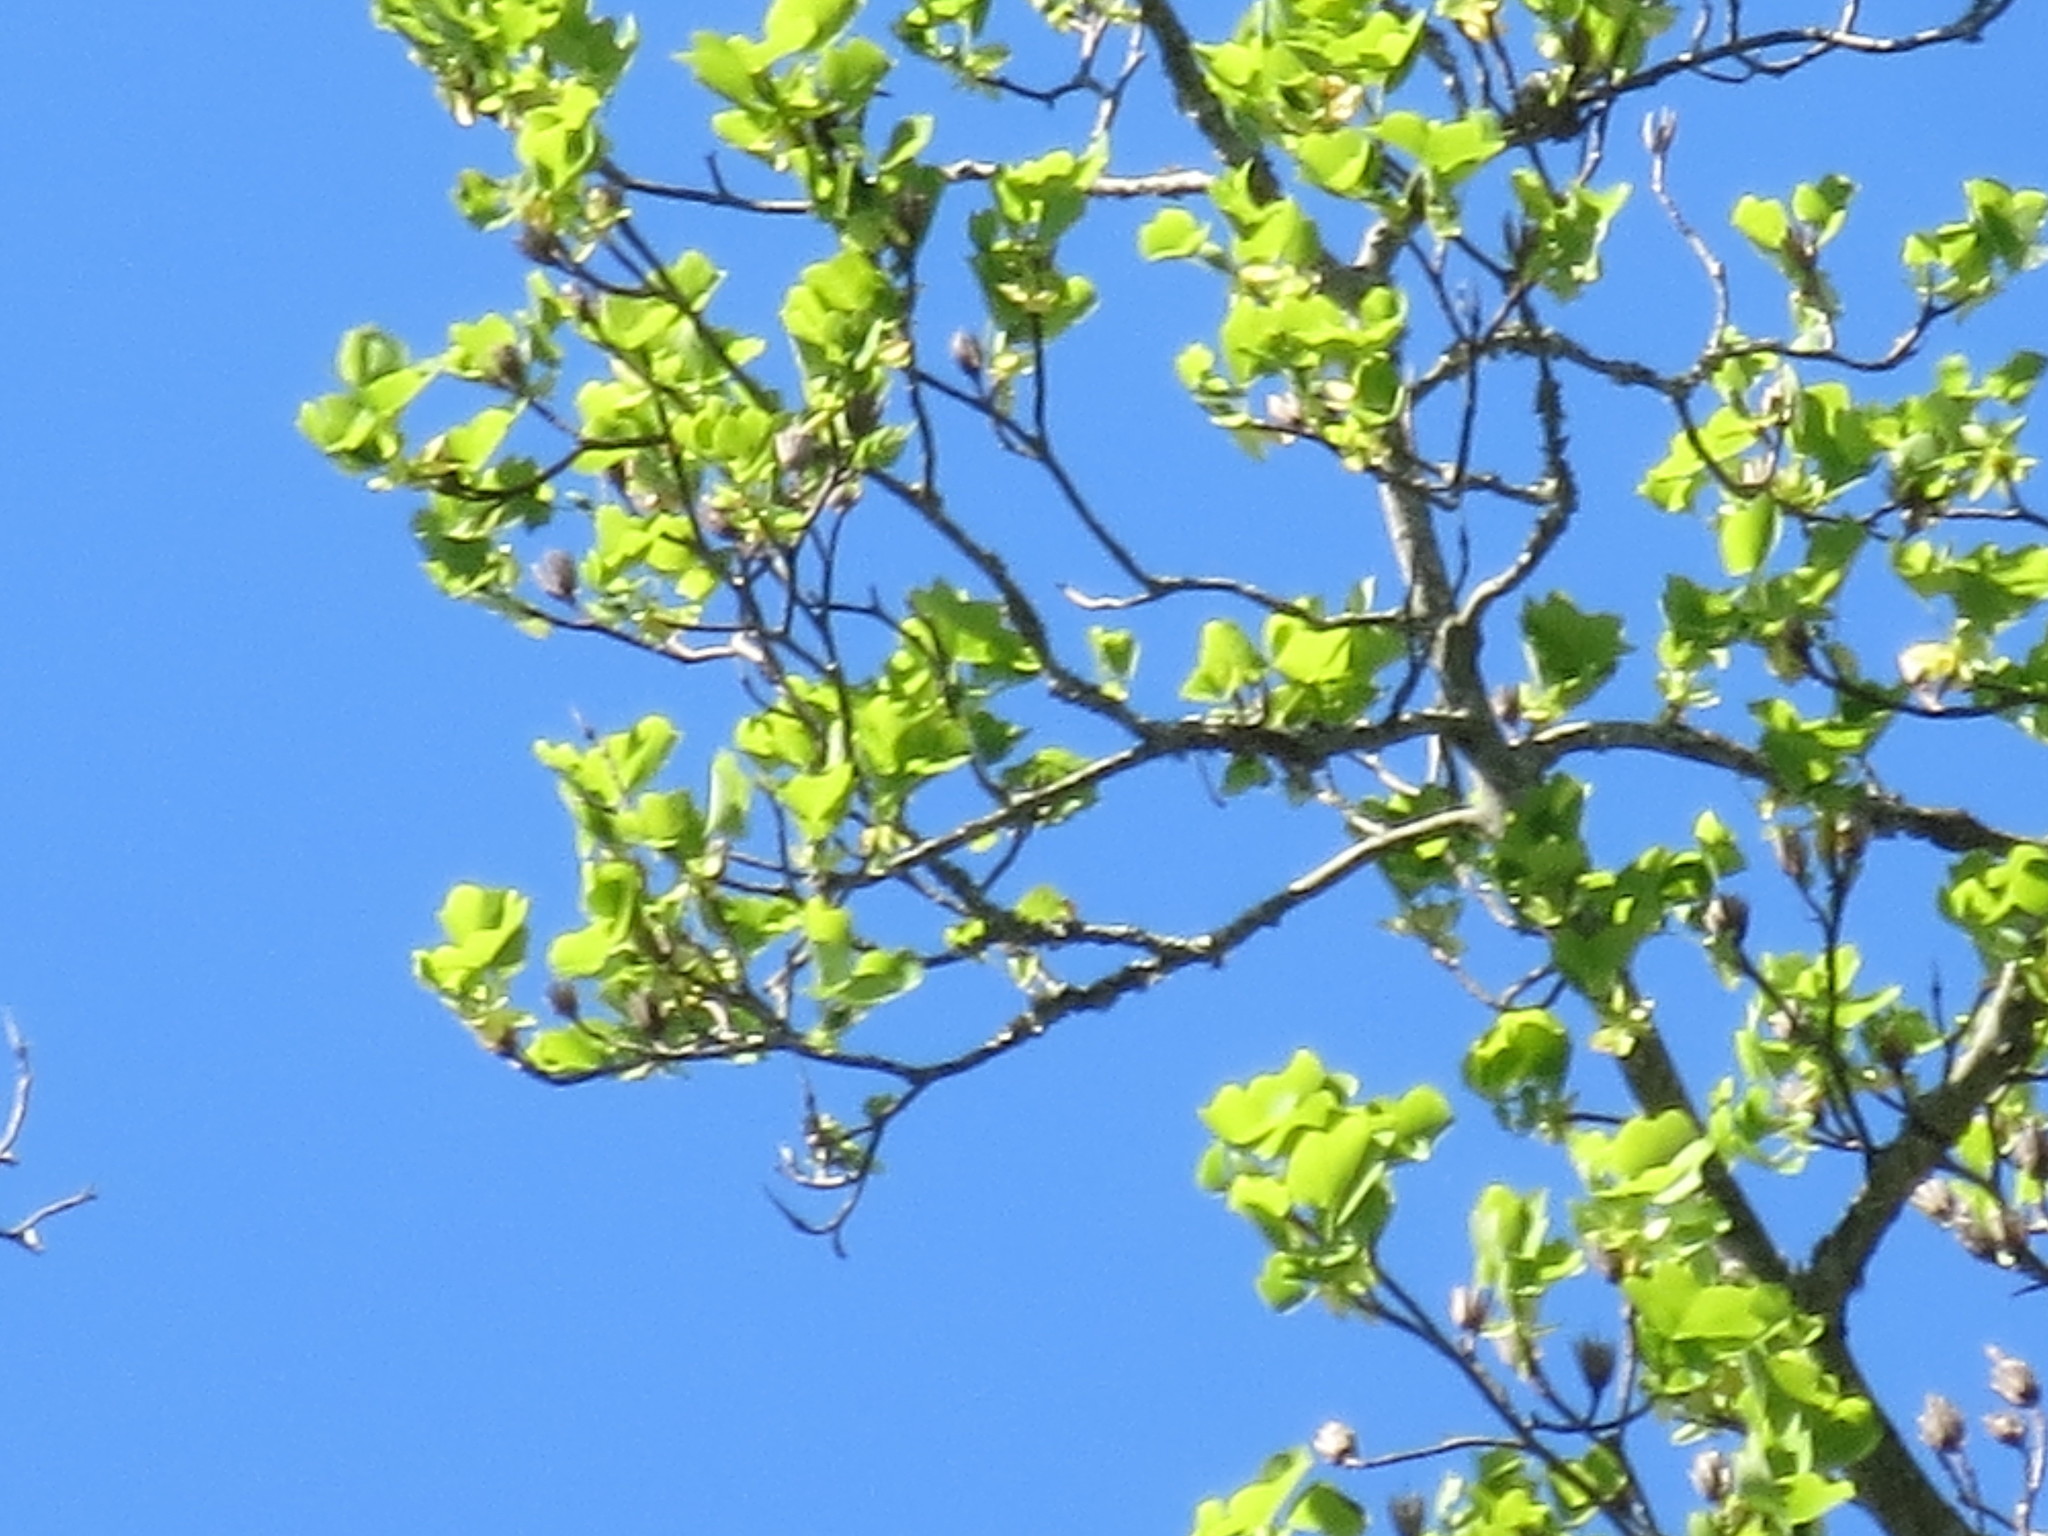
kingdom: Plantae
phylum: Tracheophyta
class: Magnoliopsida
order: Magnoliales
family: Magnoliaceae
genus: Liriodendron
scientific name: Liriodendron tulipifera
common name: Tulip tree
